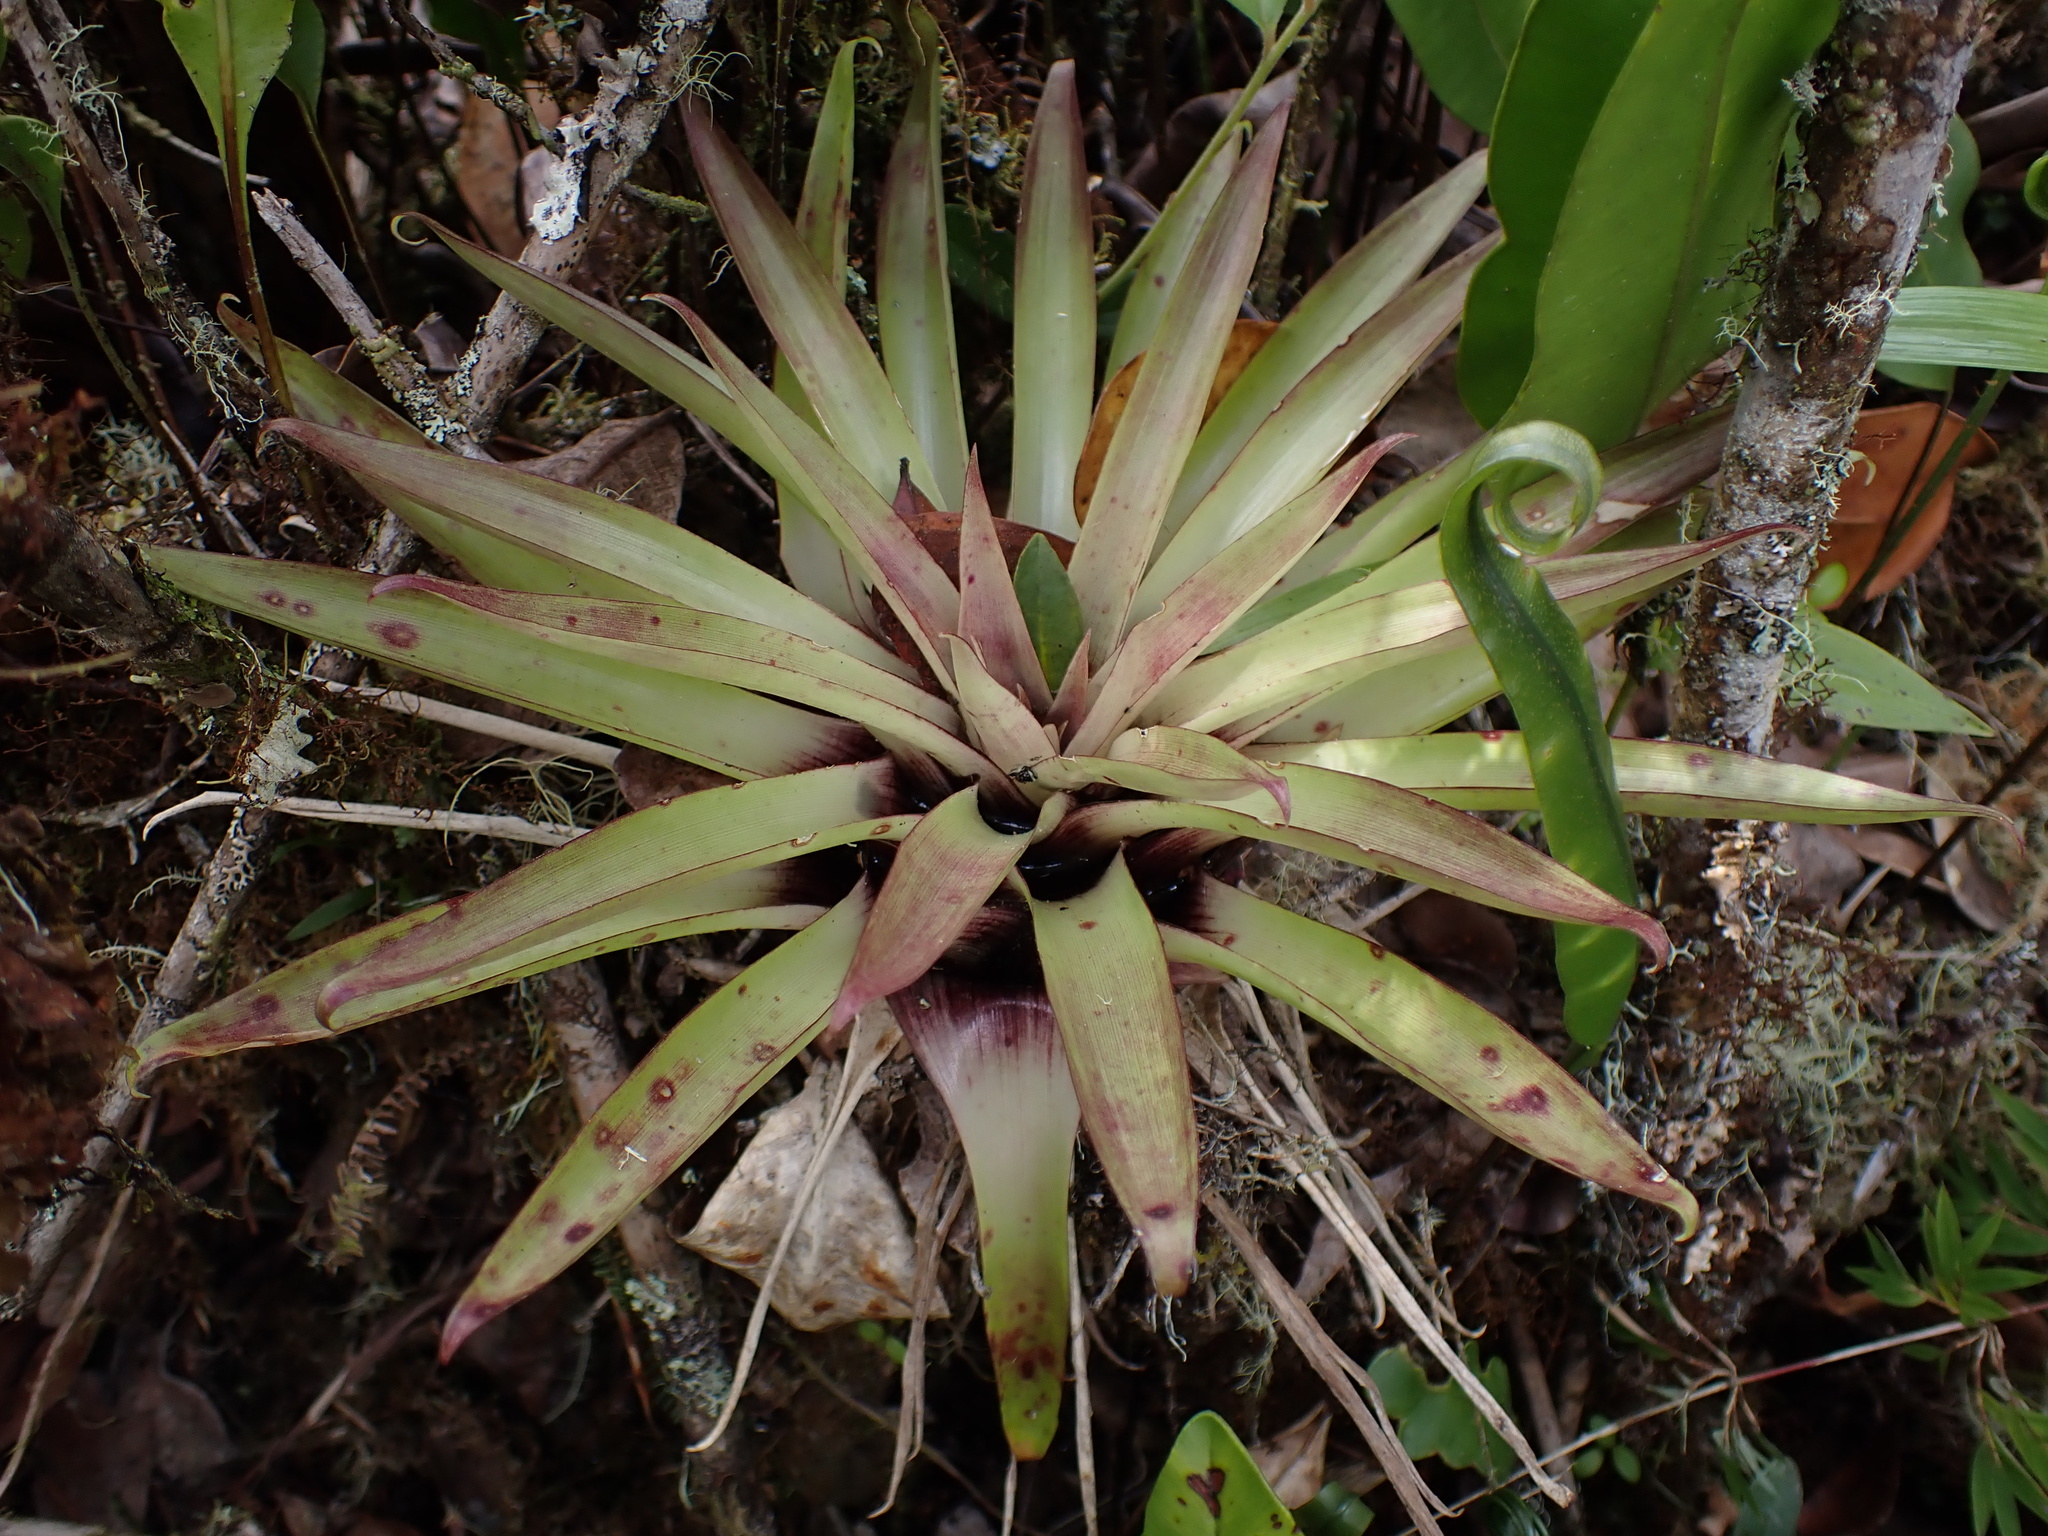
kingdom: Plantae
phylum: Tracheophyta
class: Liliopsida
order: Poales
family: Bromeliaceae
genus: Tillandsia
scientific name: Tillandsia biflora
